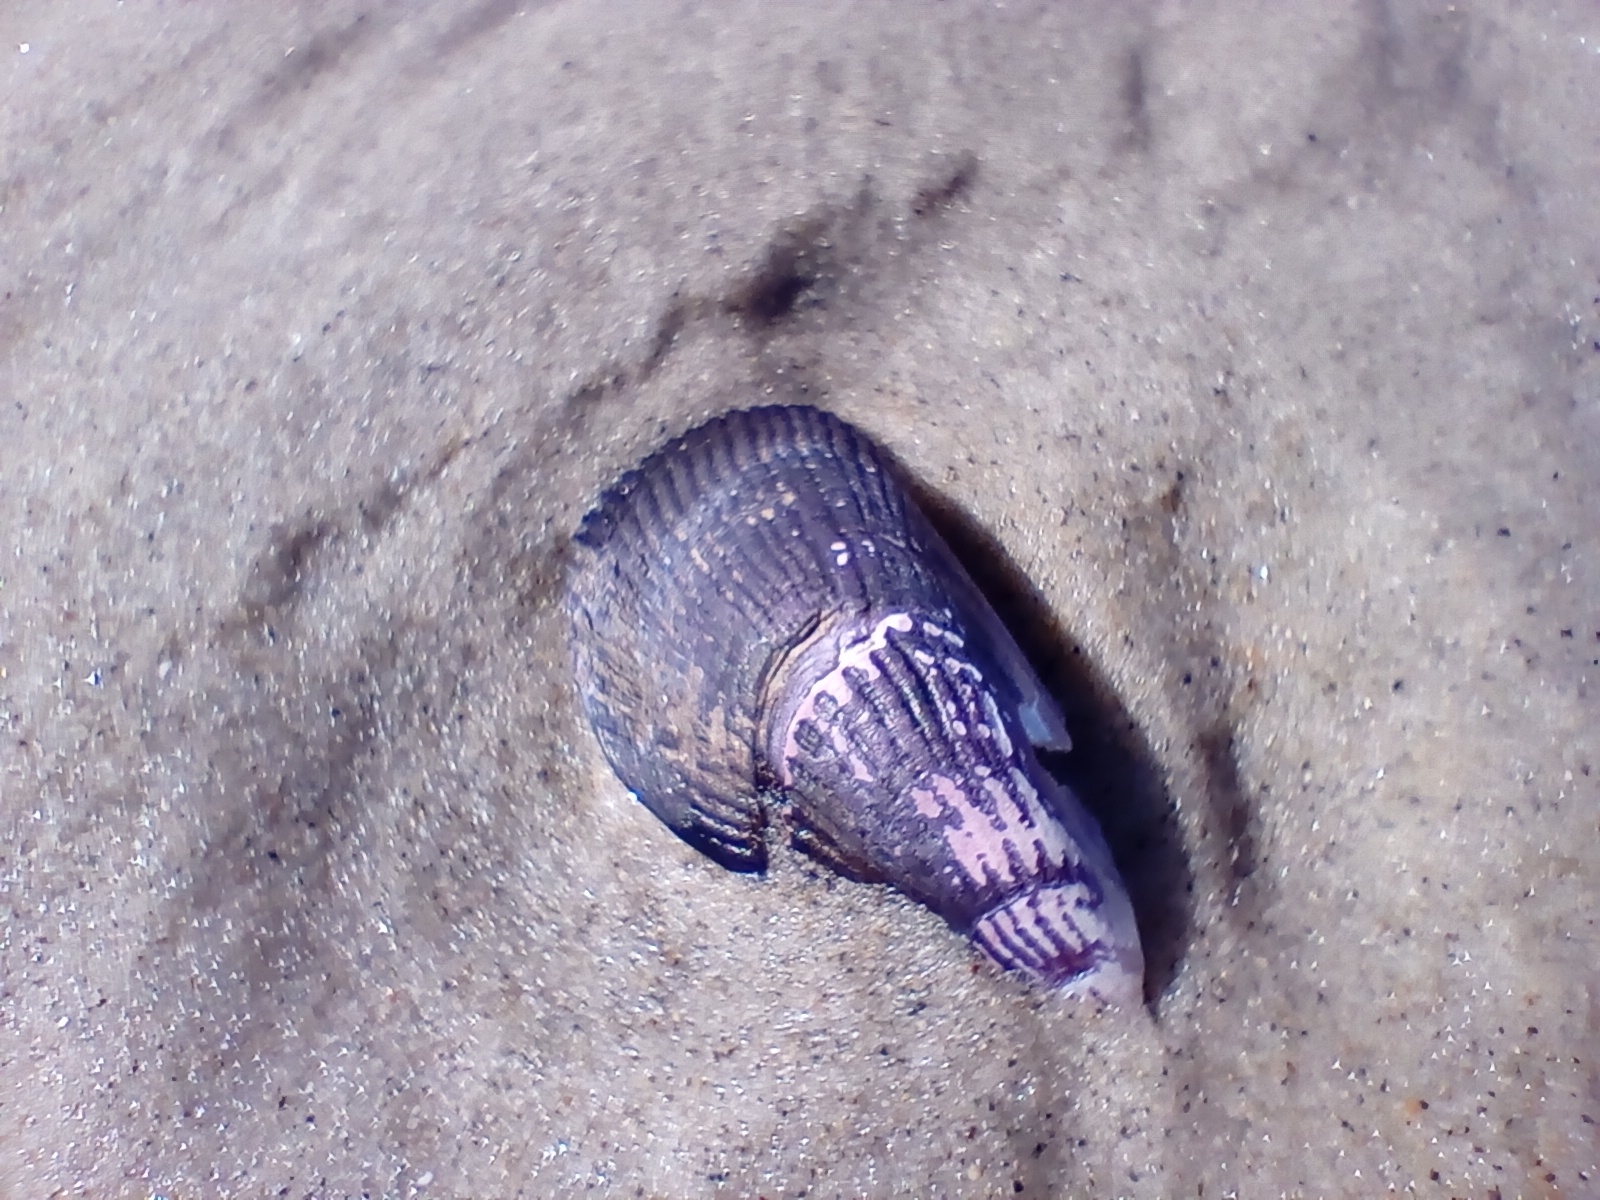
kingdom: Animalia
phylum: Mollusca
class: Bivalvia
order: Mytilida
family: Mytilidae
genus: Aulacomya
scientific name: Aulacomya maoriana
